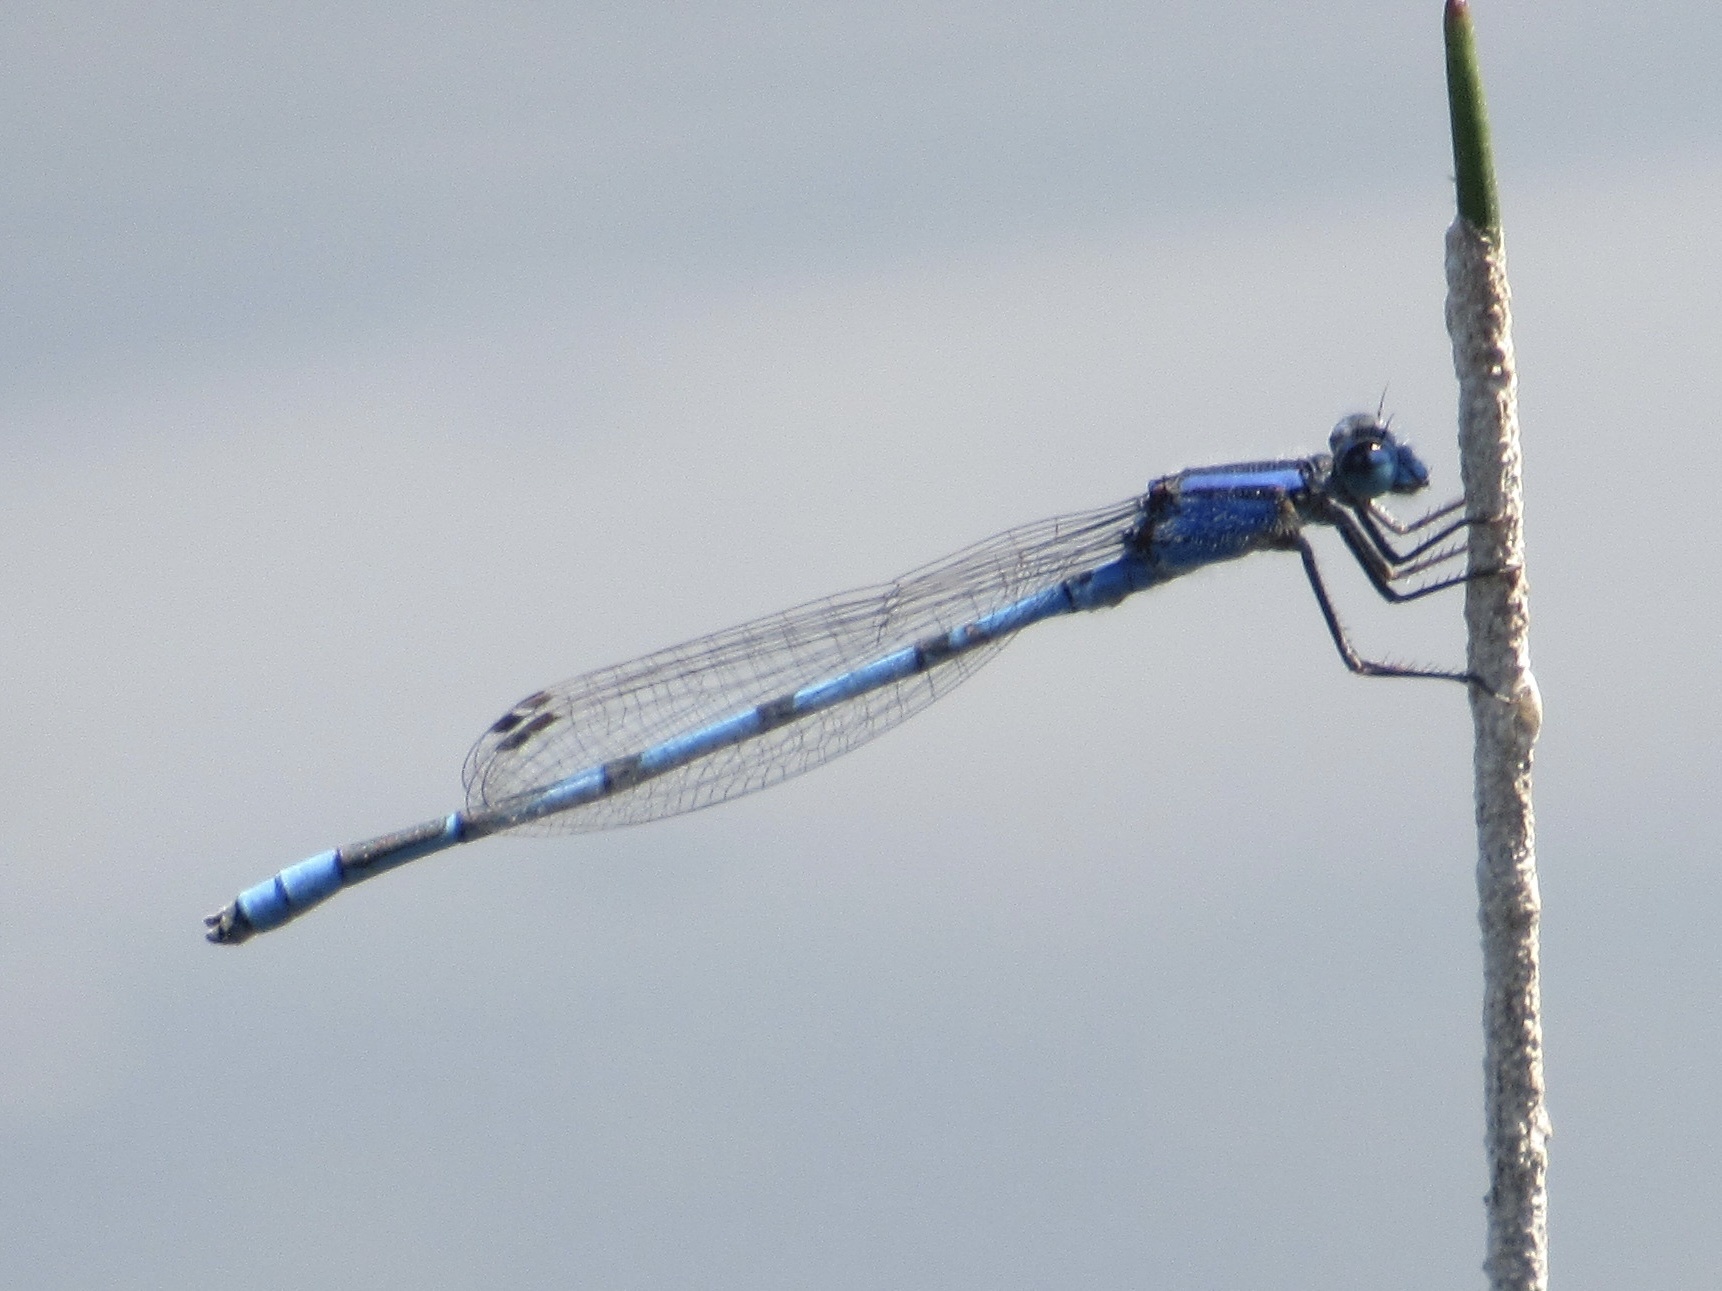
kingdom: Animalia
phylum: Arthropoda
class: Insecta
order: Odonata
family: Coenagrionidae
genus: Enallagma
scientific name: Enallagma civile
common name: Damselfly
